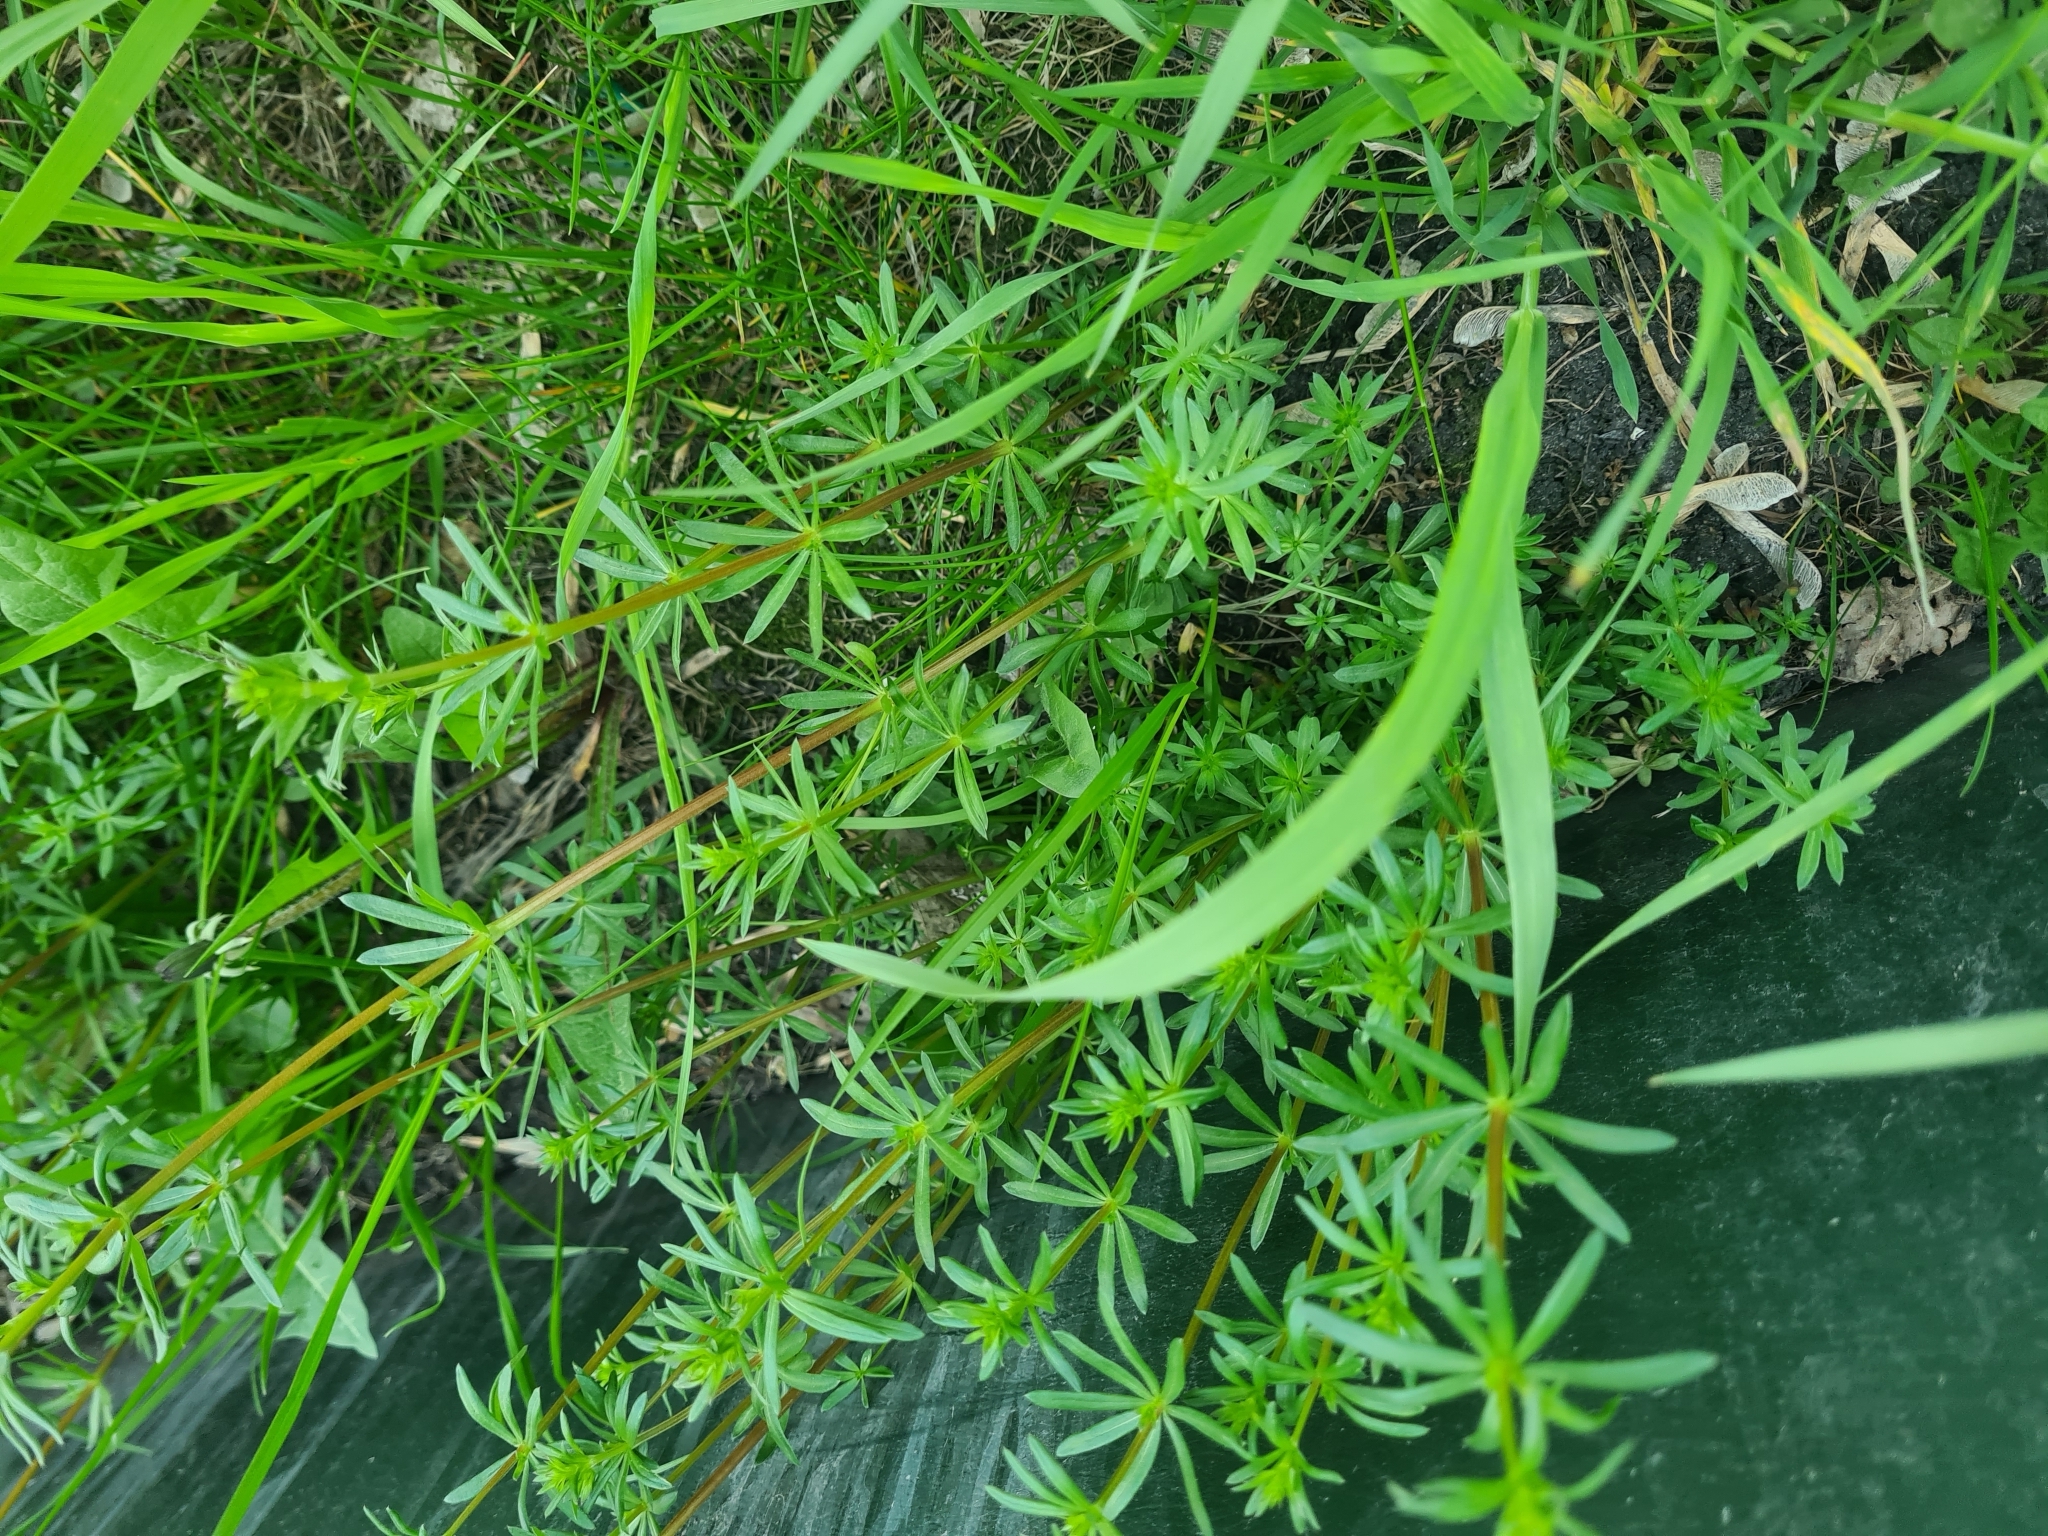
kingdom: Plantae
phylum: Tracheophyta
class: Magnoliopsida
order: Gentianales
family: Rubiaceae
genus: Galium
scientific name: Galium mollugo
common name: Hedge bedstraw
